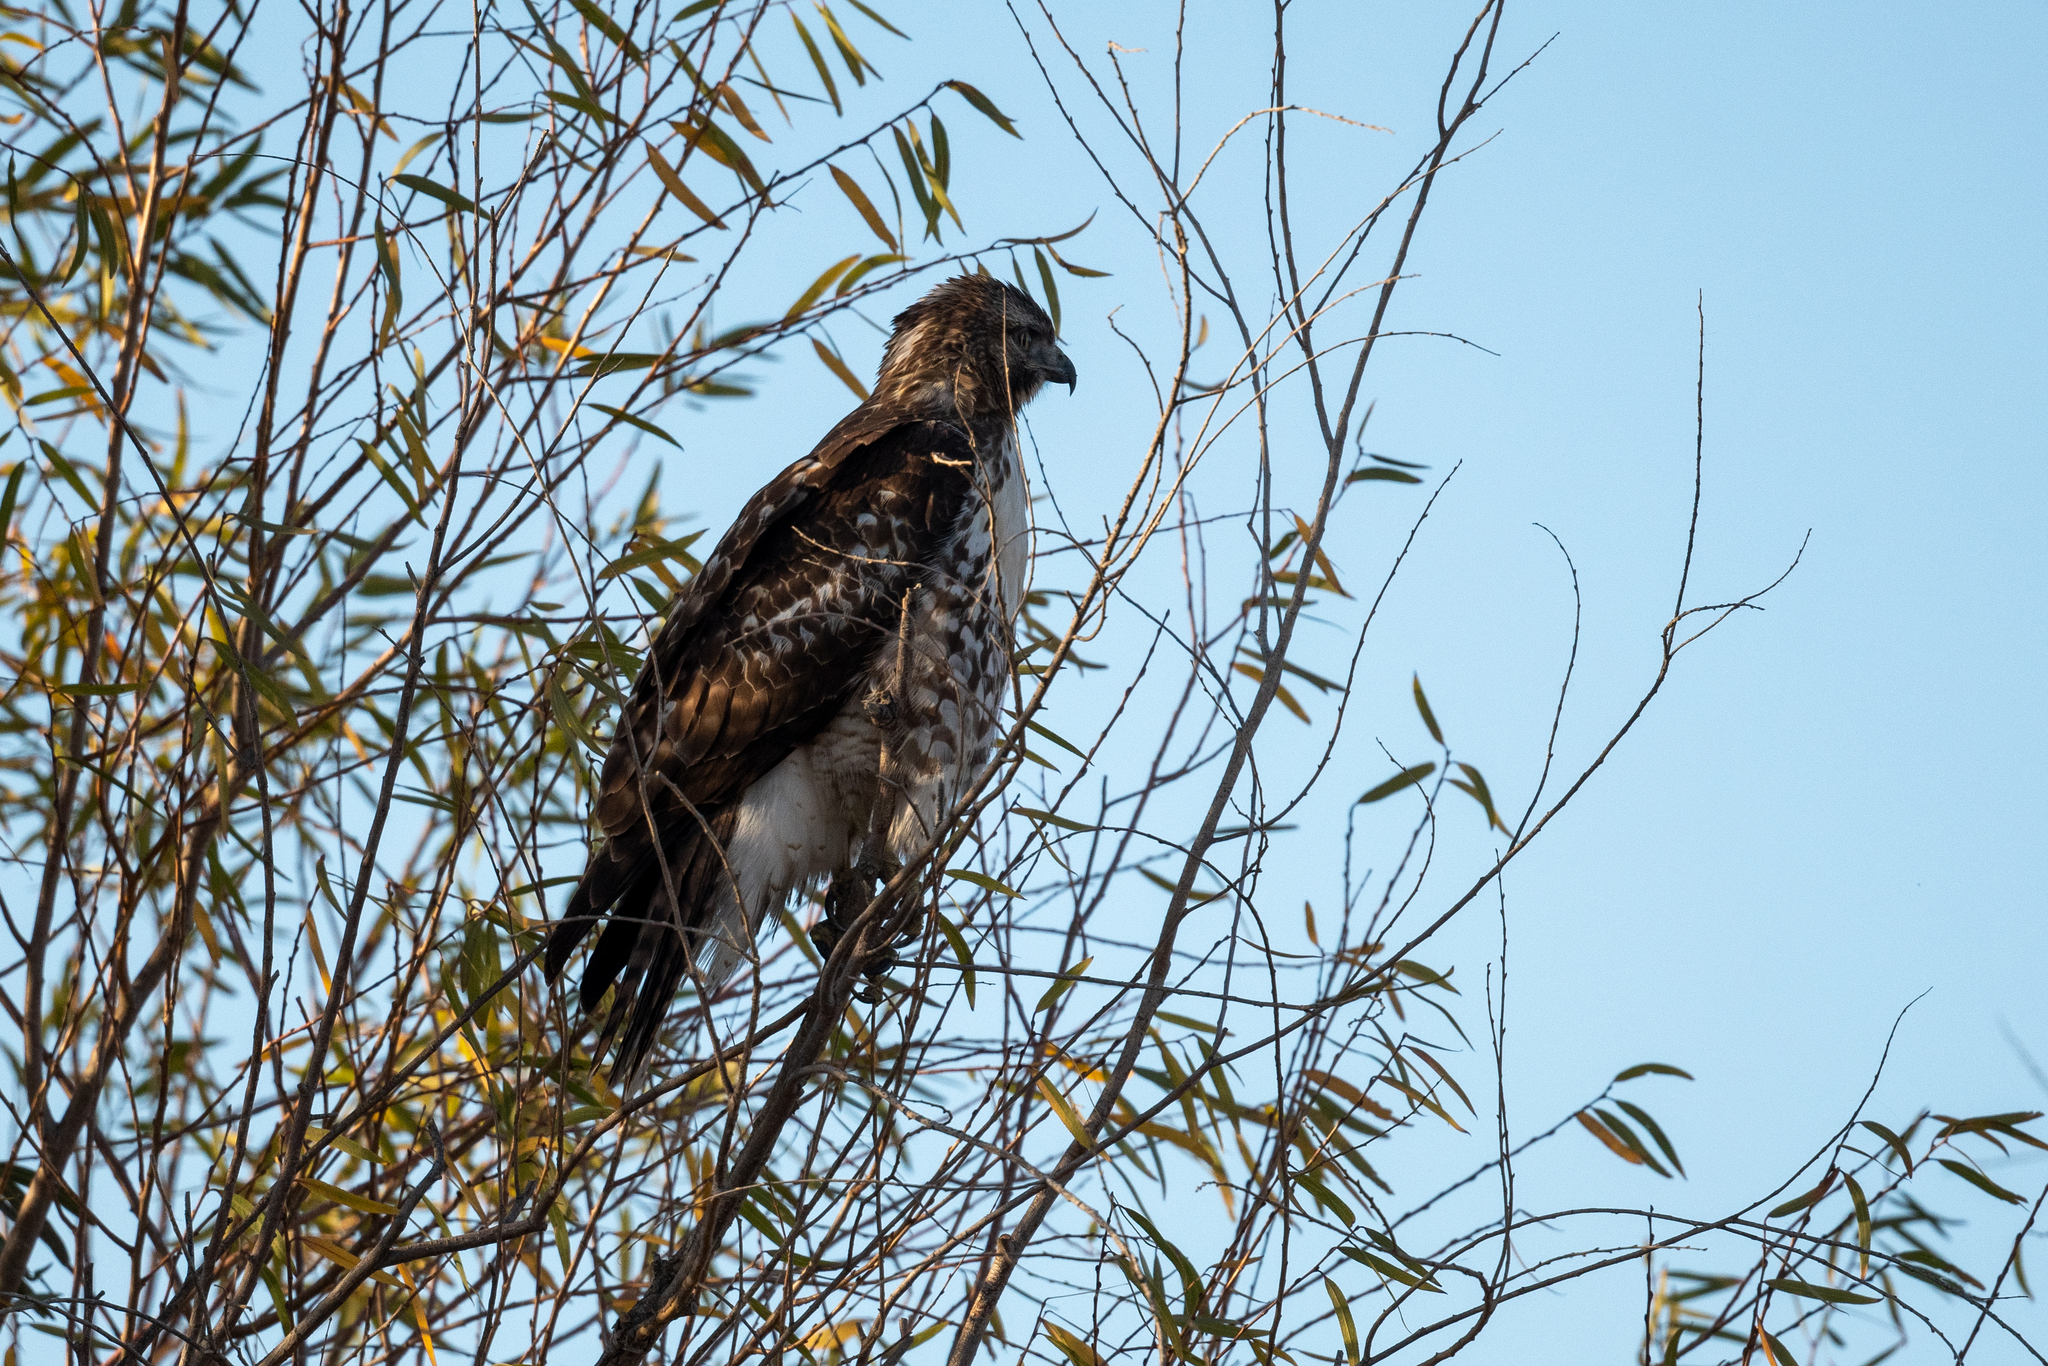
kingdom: Animalia
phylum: Chordata
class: Aves
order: Accipitriformes
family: Accipitridae
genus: Buteo
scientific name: Buteo jamaicensis
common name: Red-tailed hawk
